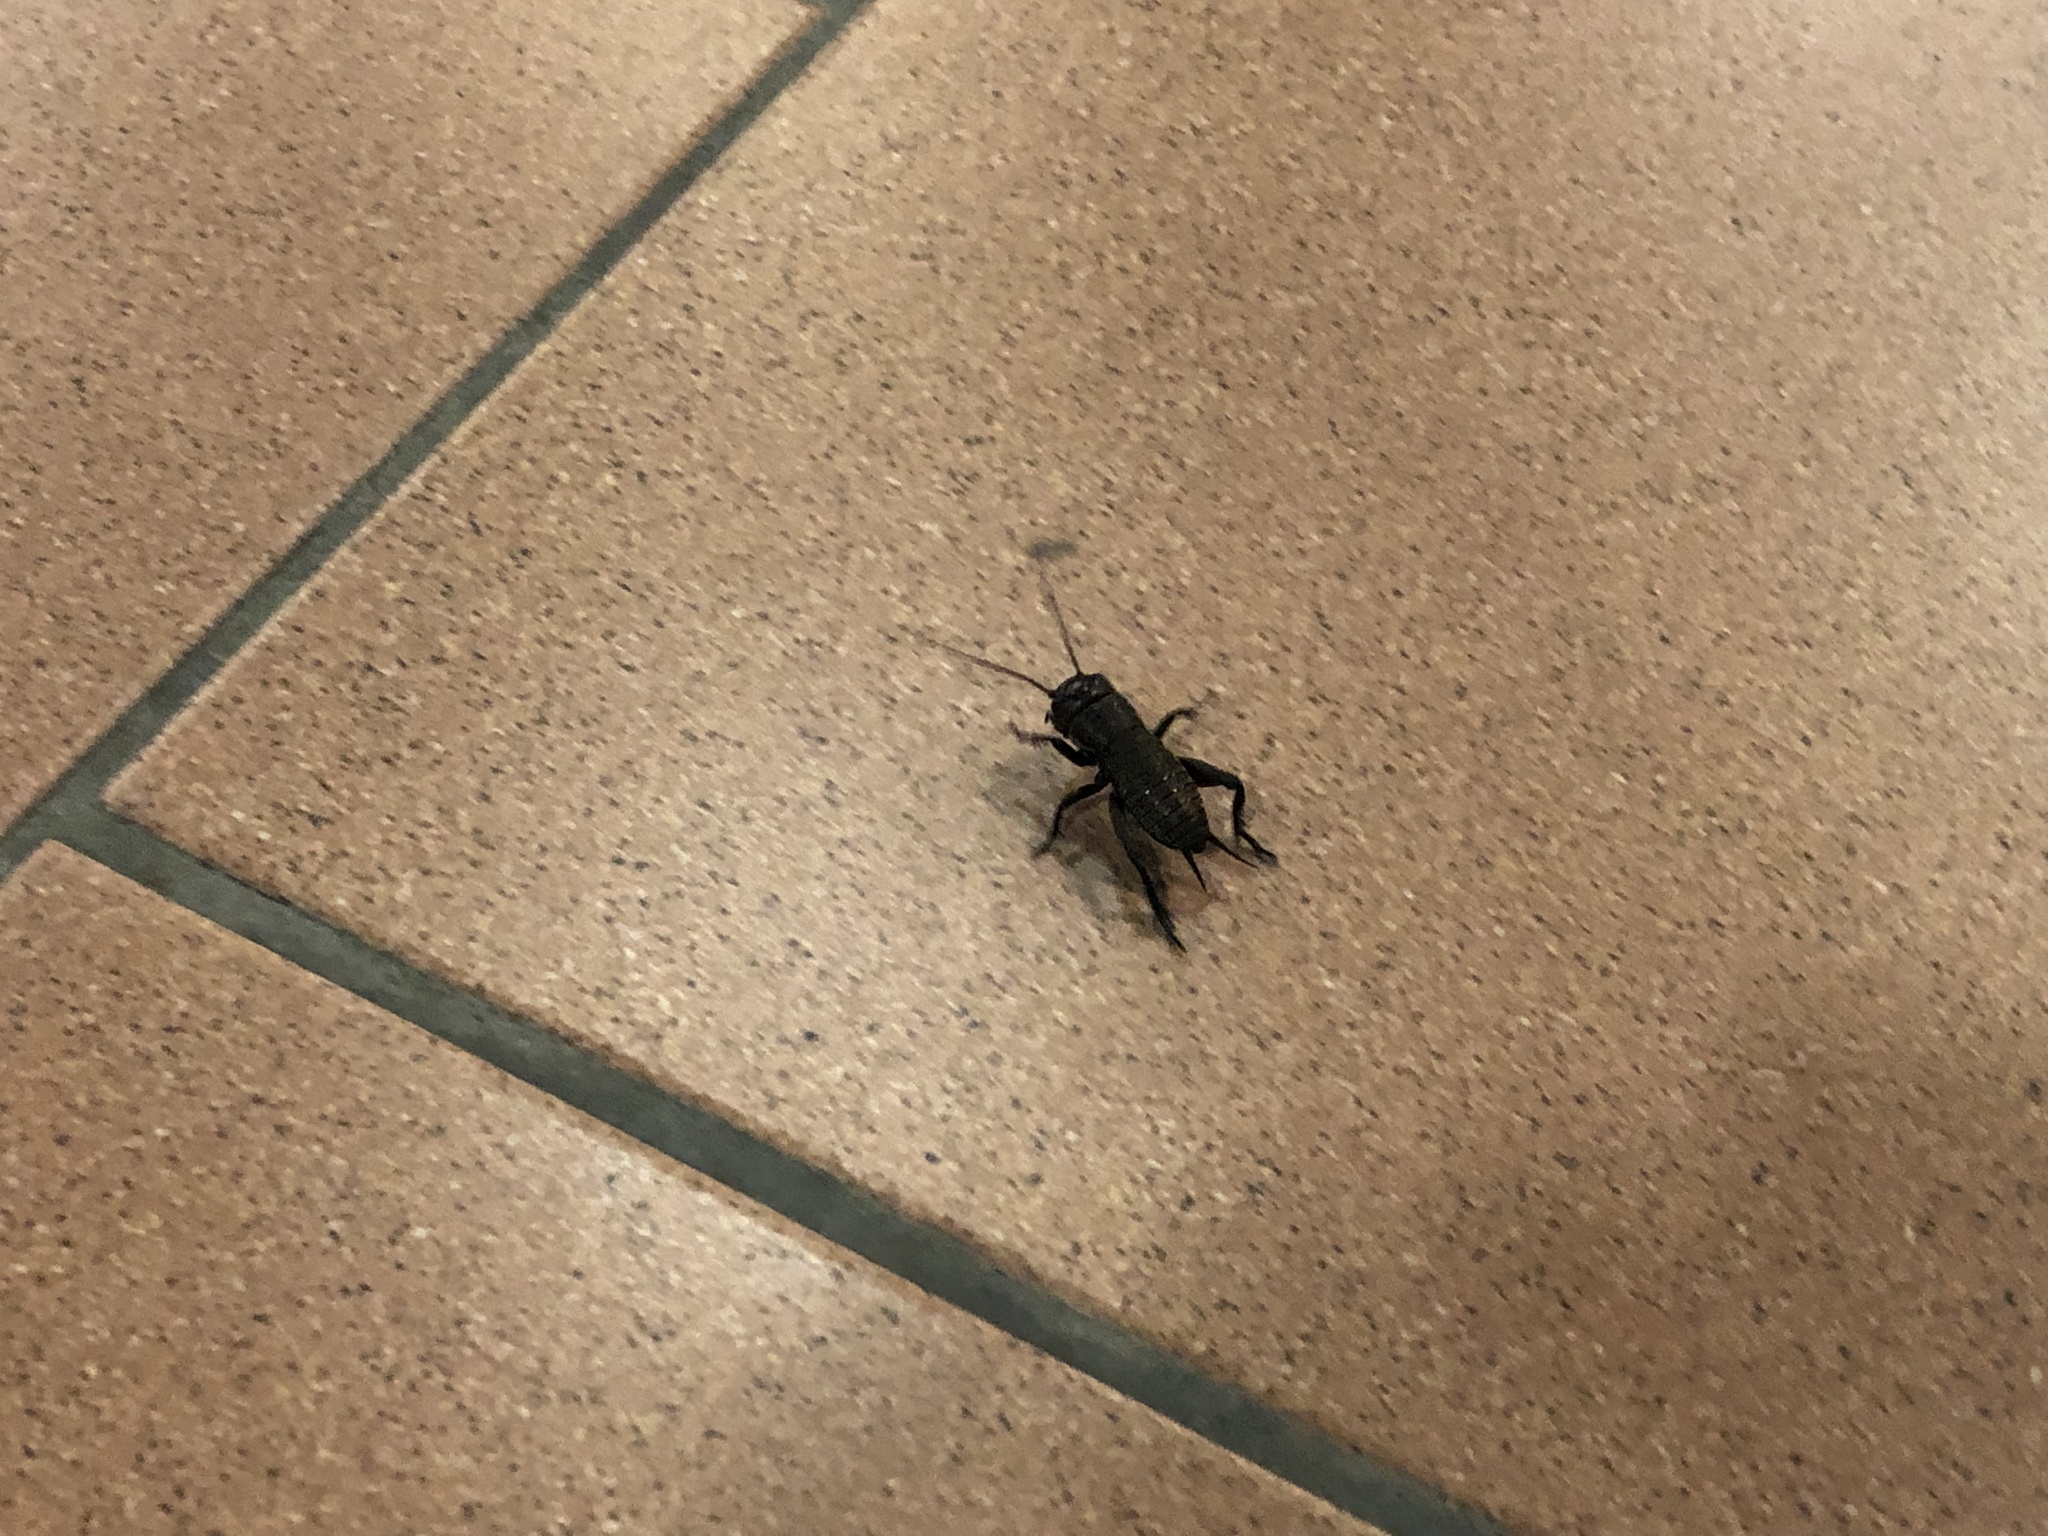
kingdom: Animalia
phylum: Arthropoda
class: Insecta
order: Orthoptera
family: Gryllidae
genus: Gryllus
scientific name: Gryllus campestris
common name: Field cricket
